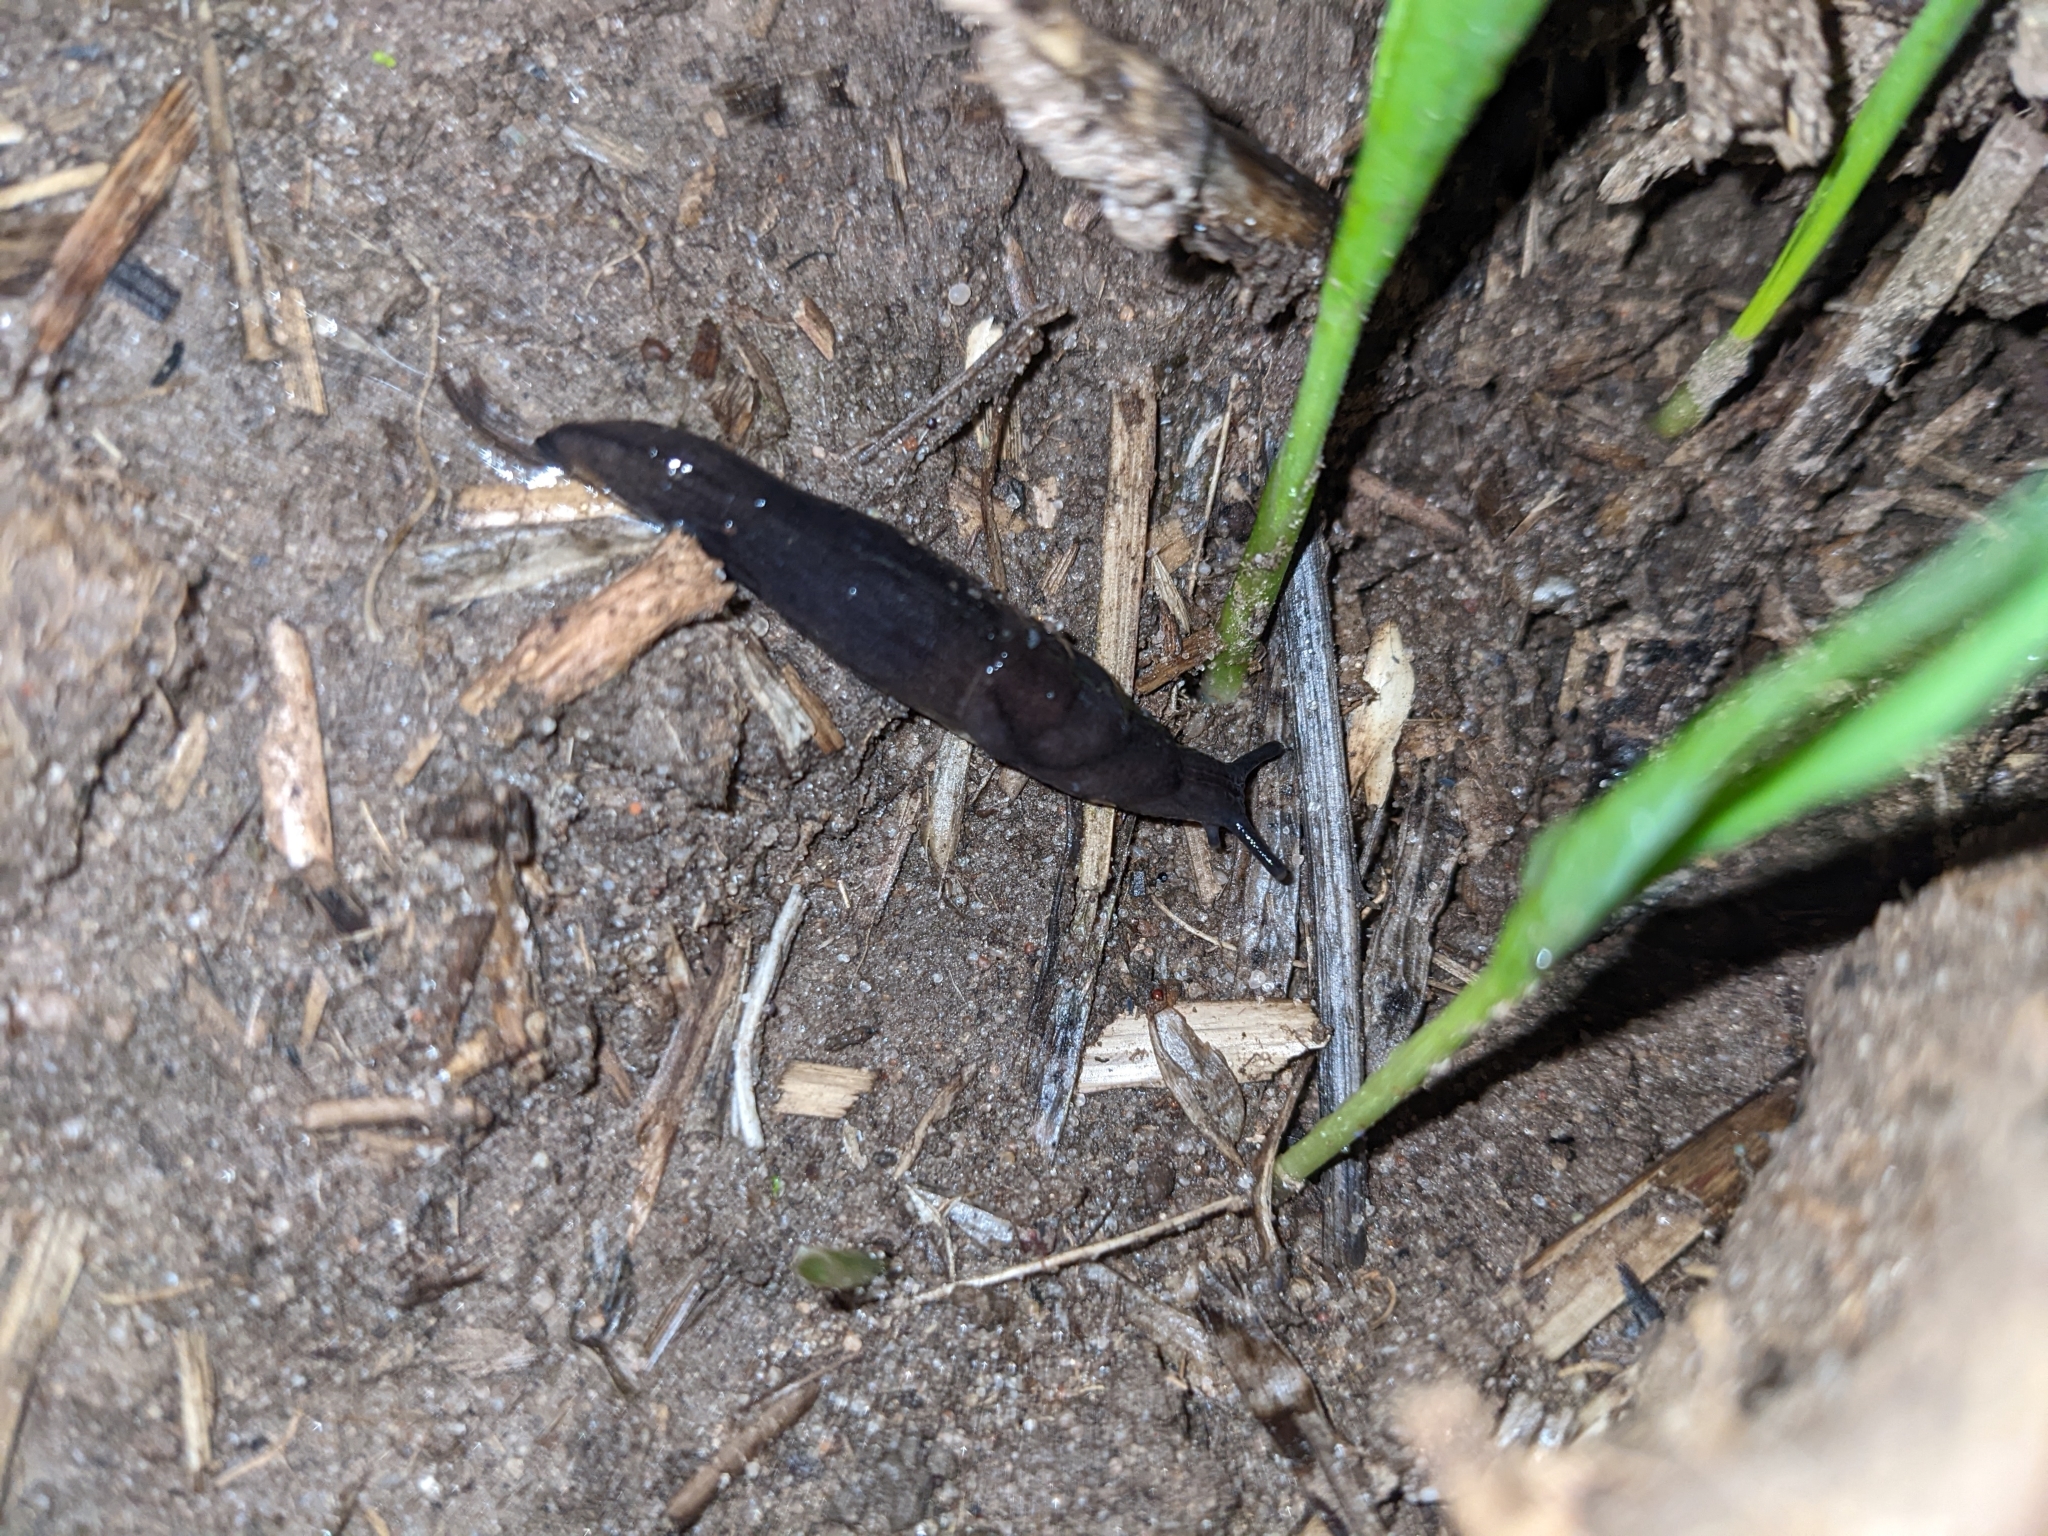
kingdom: Animalia
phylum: Mollusca
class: Gastropoda
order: Stylommatophora
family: Milacidae
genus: Milax
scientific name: Milax gagates
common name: Greenhouse slug
